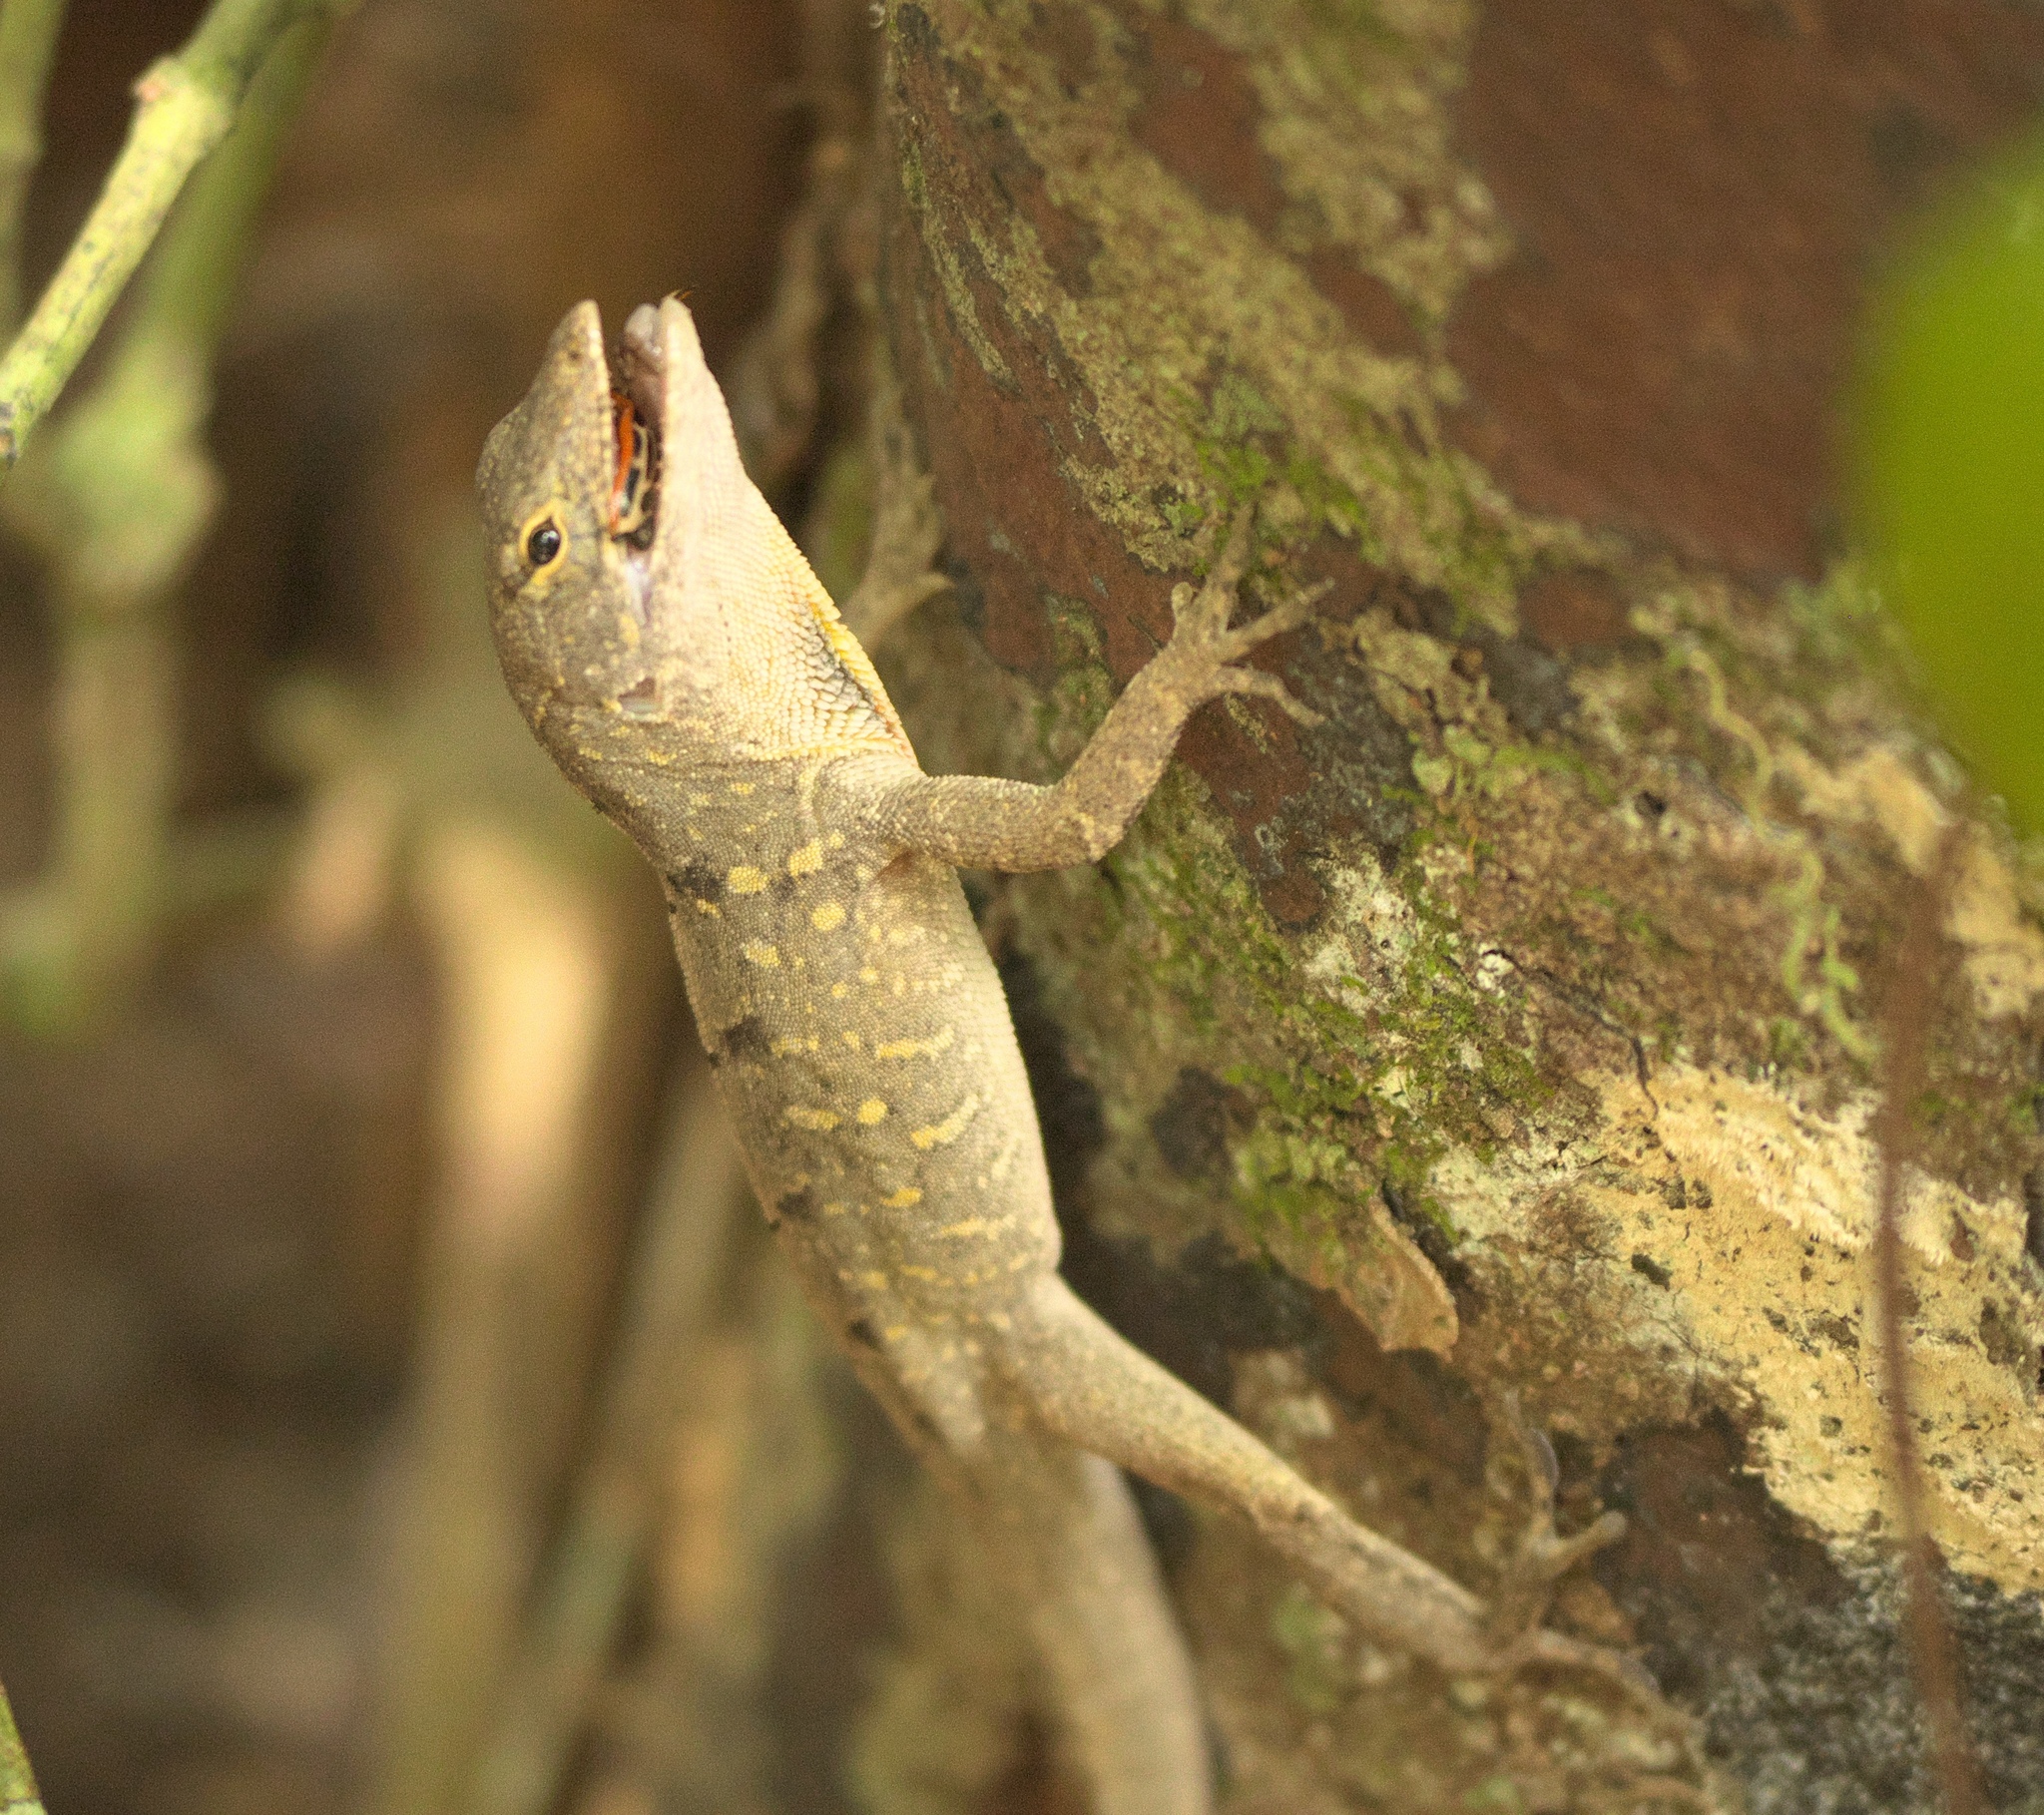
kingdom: Animalia
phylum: Chordata
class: Squamata
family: Dactyloidae
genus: Anolis
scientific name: Anolis sagrei
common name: Brown anole
